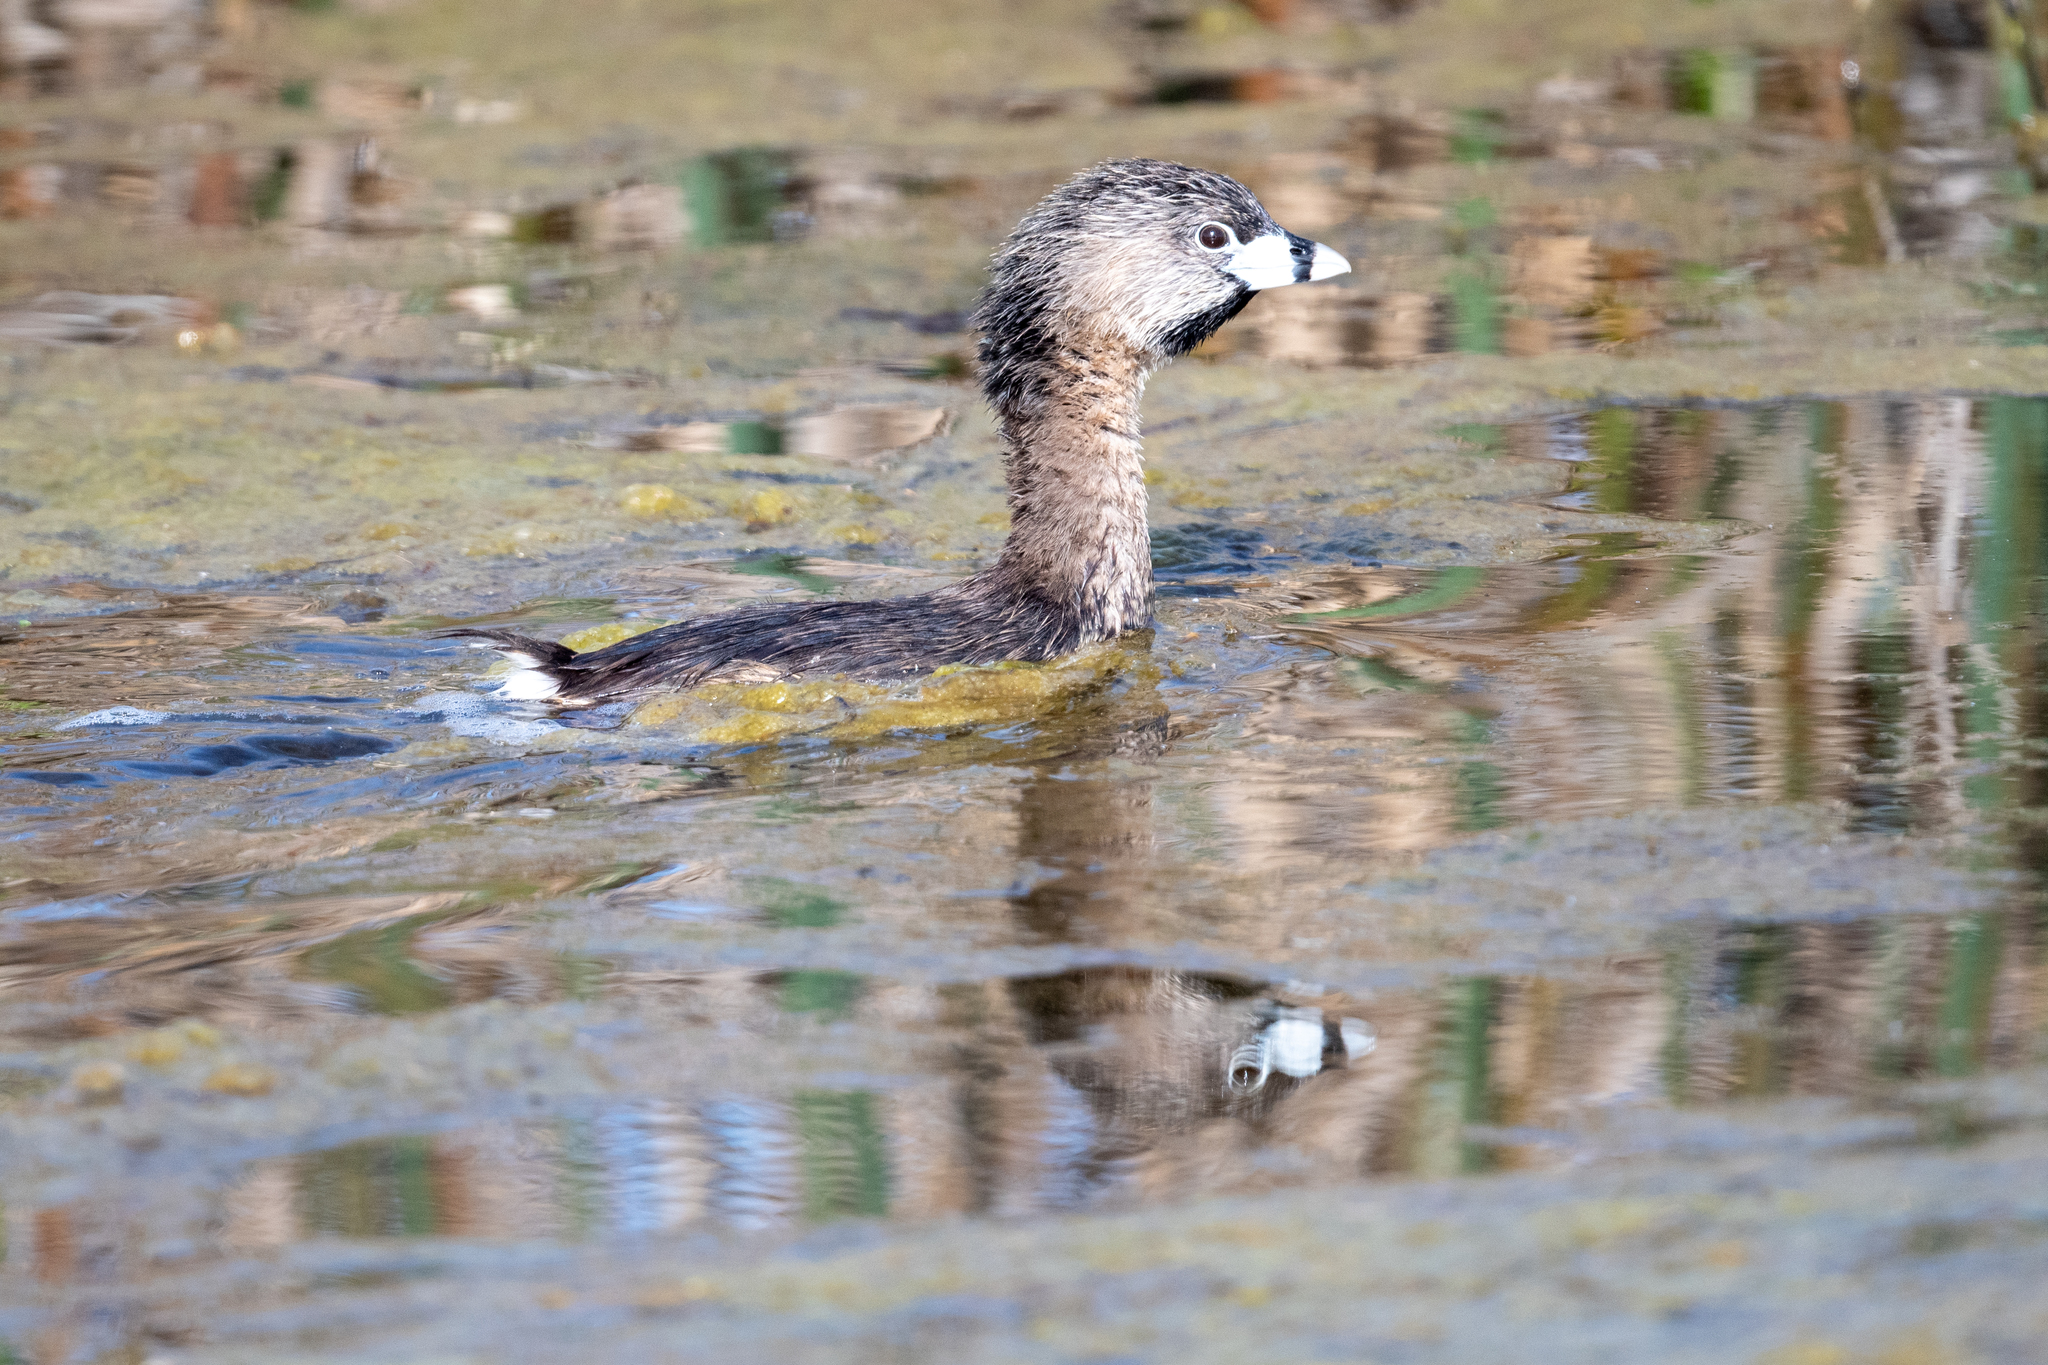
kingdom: Animalia
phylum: Chordata
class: Aves
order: Podicipediformes
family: Podicipedidae
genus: Podilymbus
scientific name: Podilymbus podiceps
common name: Pied-billed grebe
